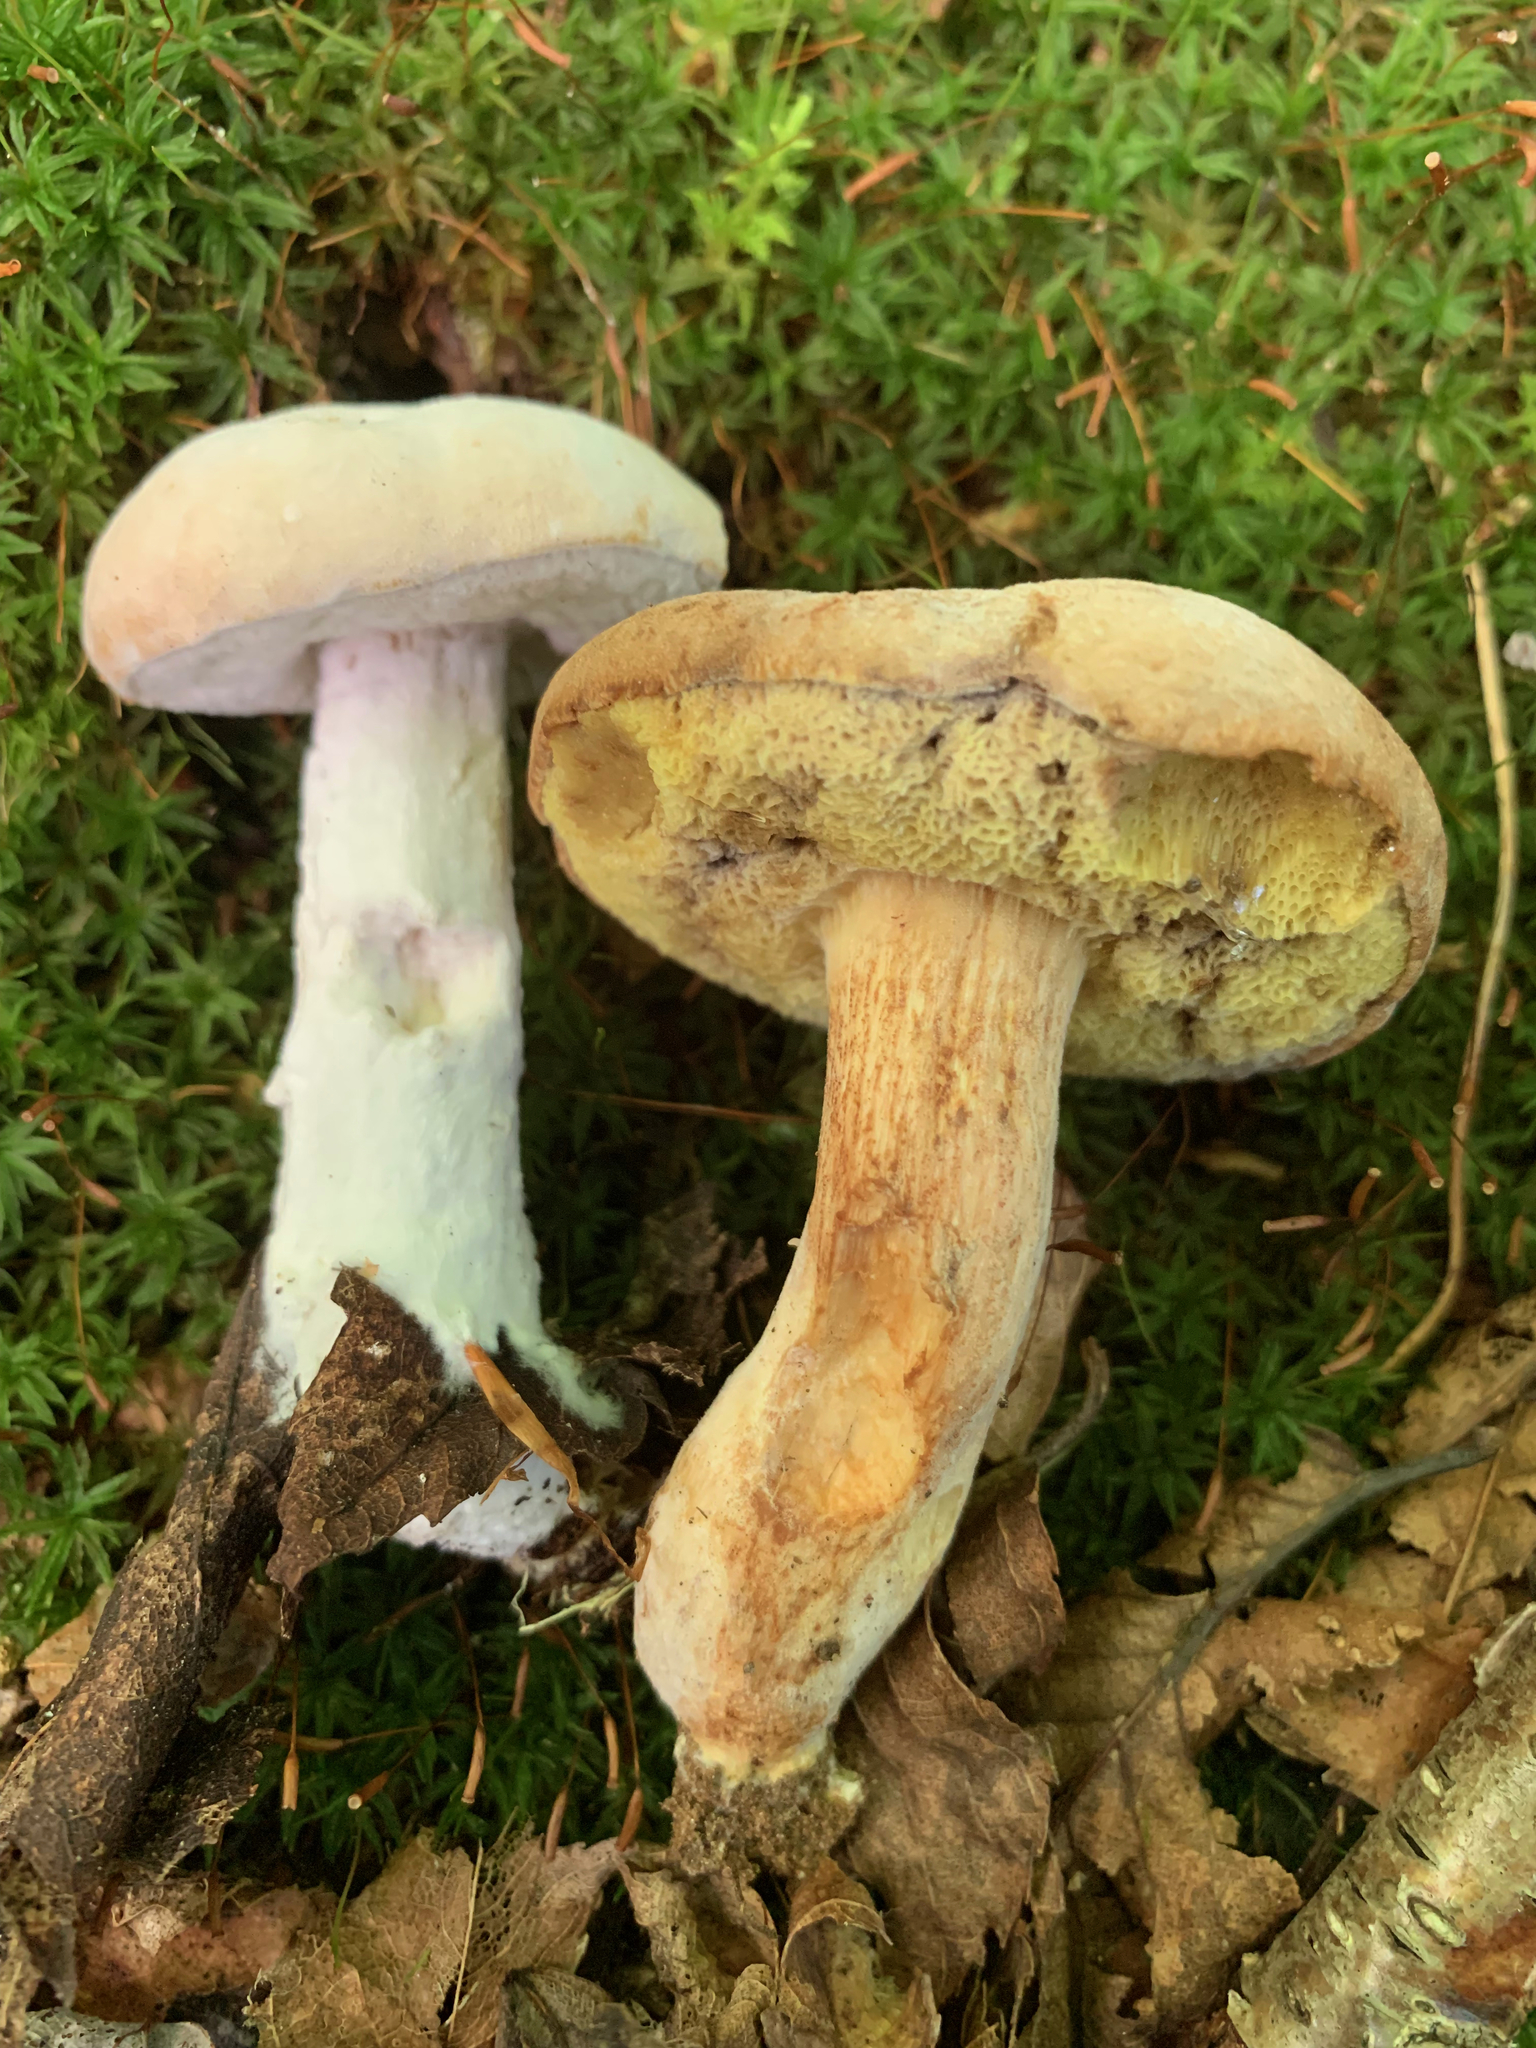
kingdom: Fungi
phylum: Ascomycota
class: Sordariomycetes
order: Hypocreales
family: Hypocreaceae
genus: Hypomyces
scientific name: Hypomyces chrysospermus
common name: Bolete mould
